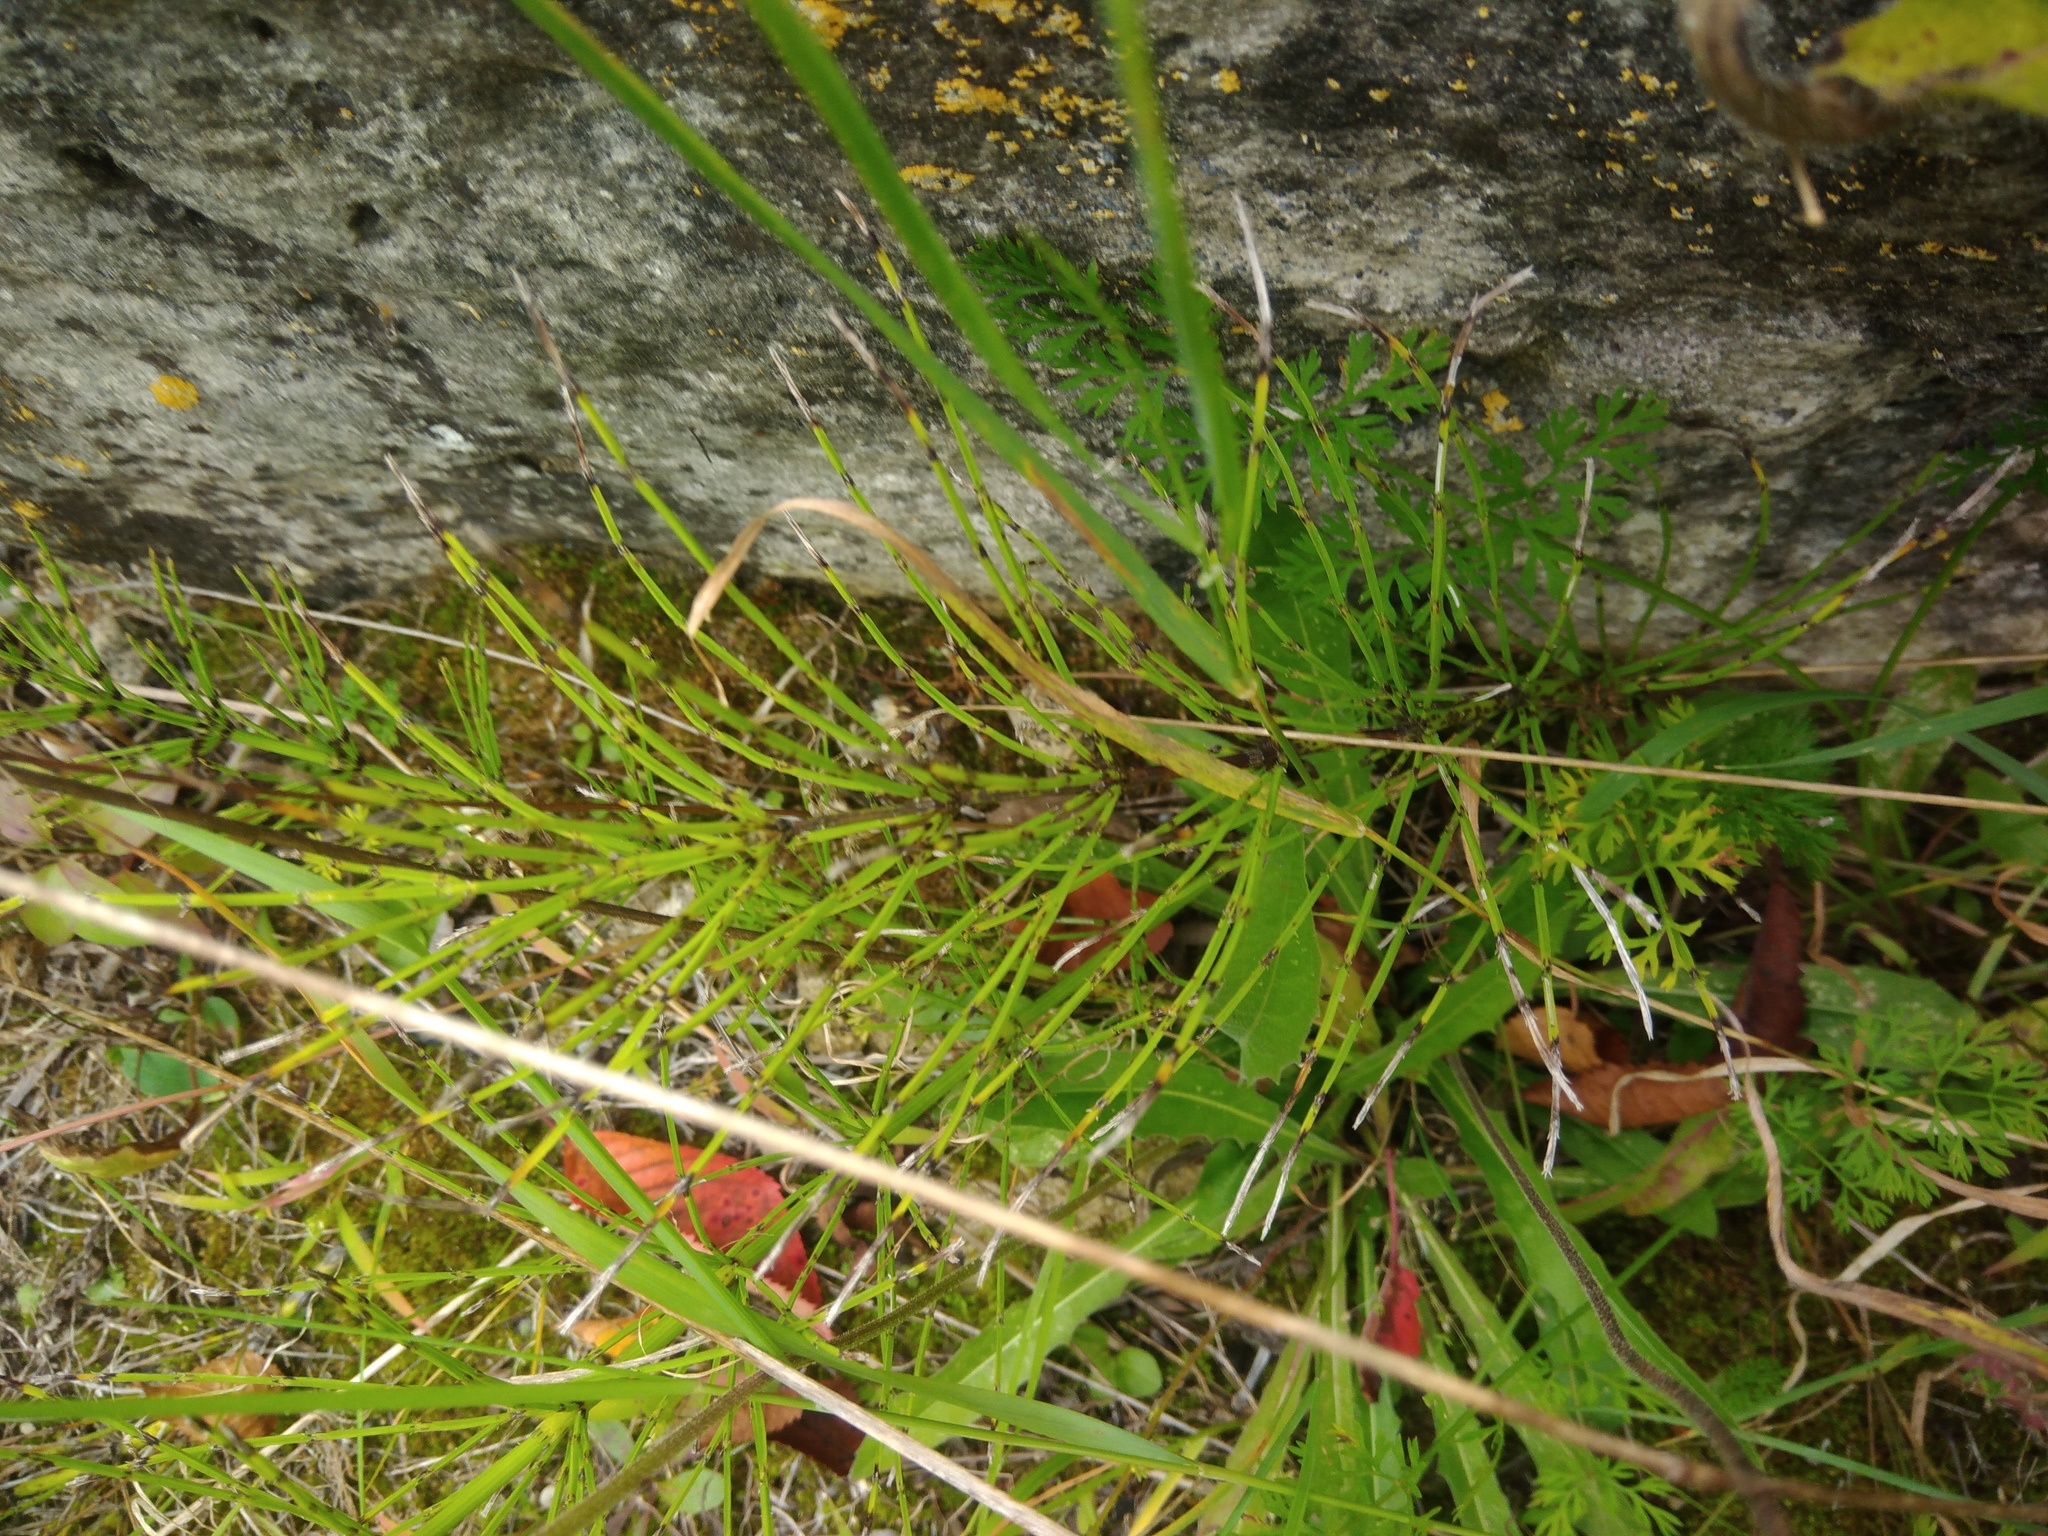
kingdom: Plantae
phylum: Tracheophyta
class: Polypodiopsida
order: Equisetales
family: Equisetaceae
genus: Equisetum
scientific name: Equisetum arvense
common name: Field horsetail
